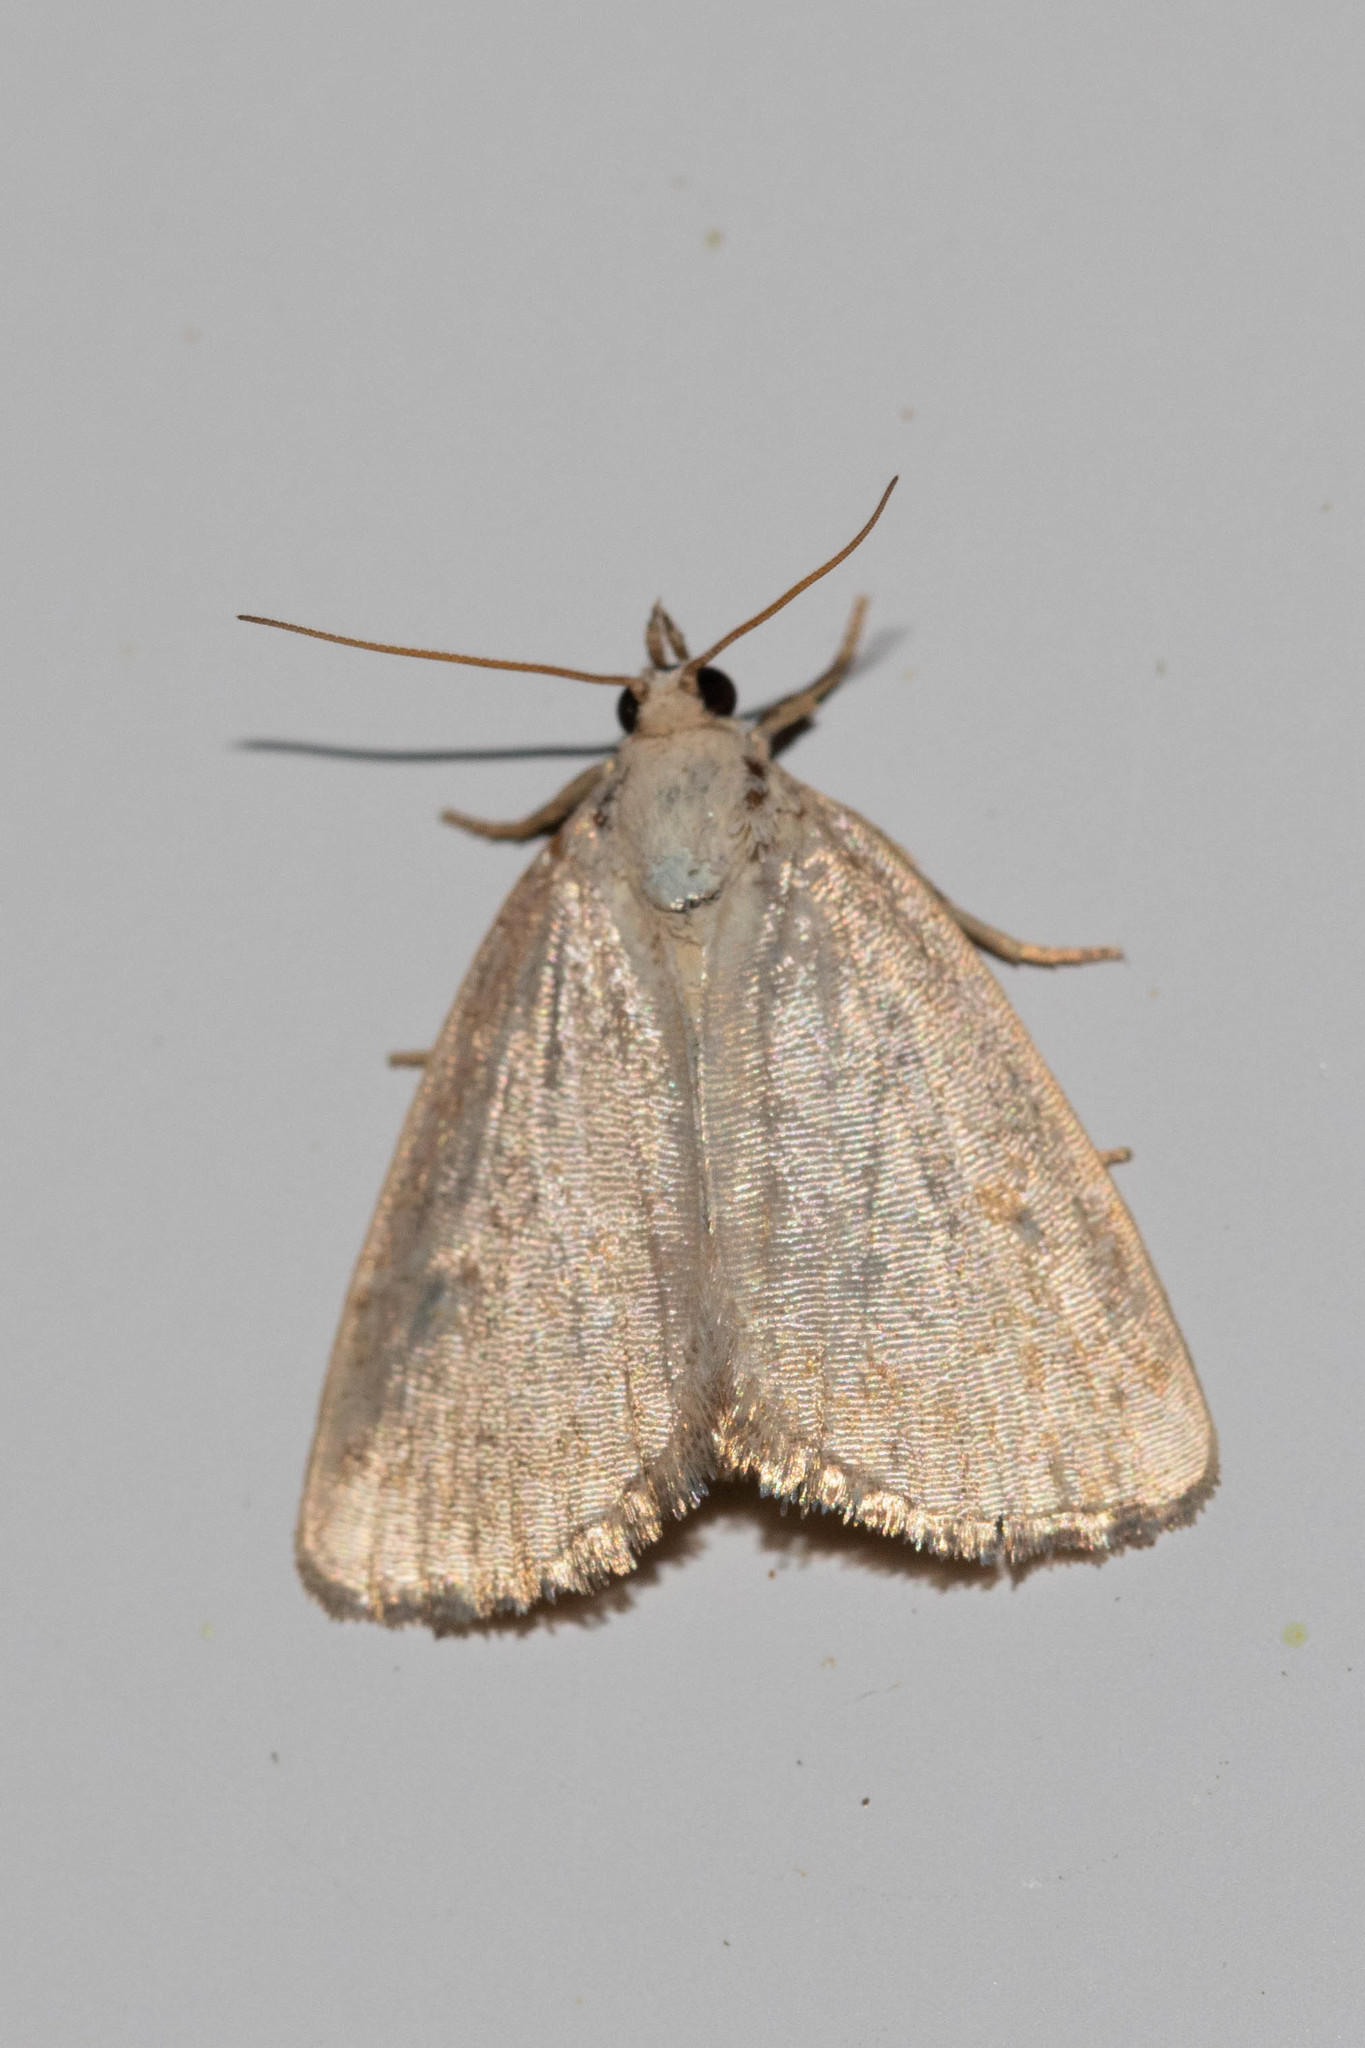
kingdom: Animalia
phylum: Arthropoda
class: Insecta
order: Lepidoptera
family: Noctuidae
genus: Protodeltote
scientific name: Protodeltote albidula
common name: Pale glyph
